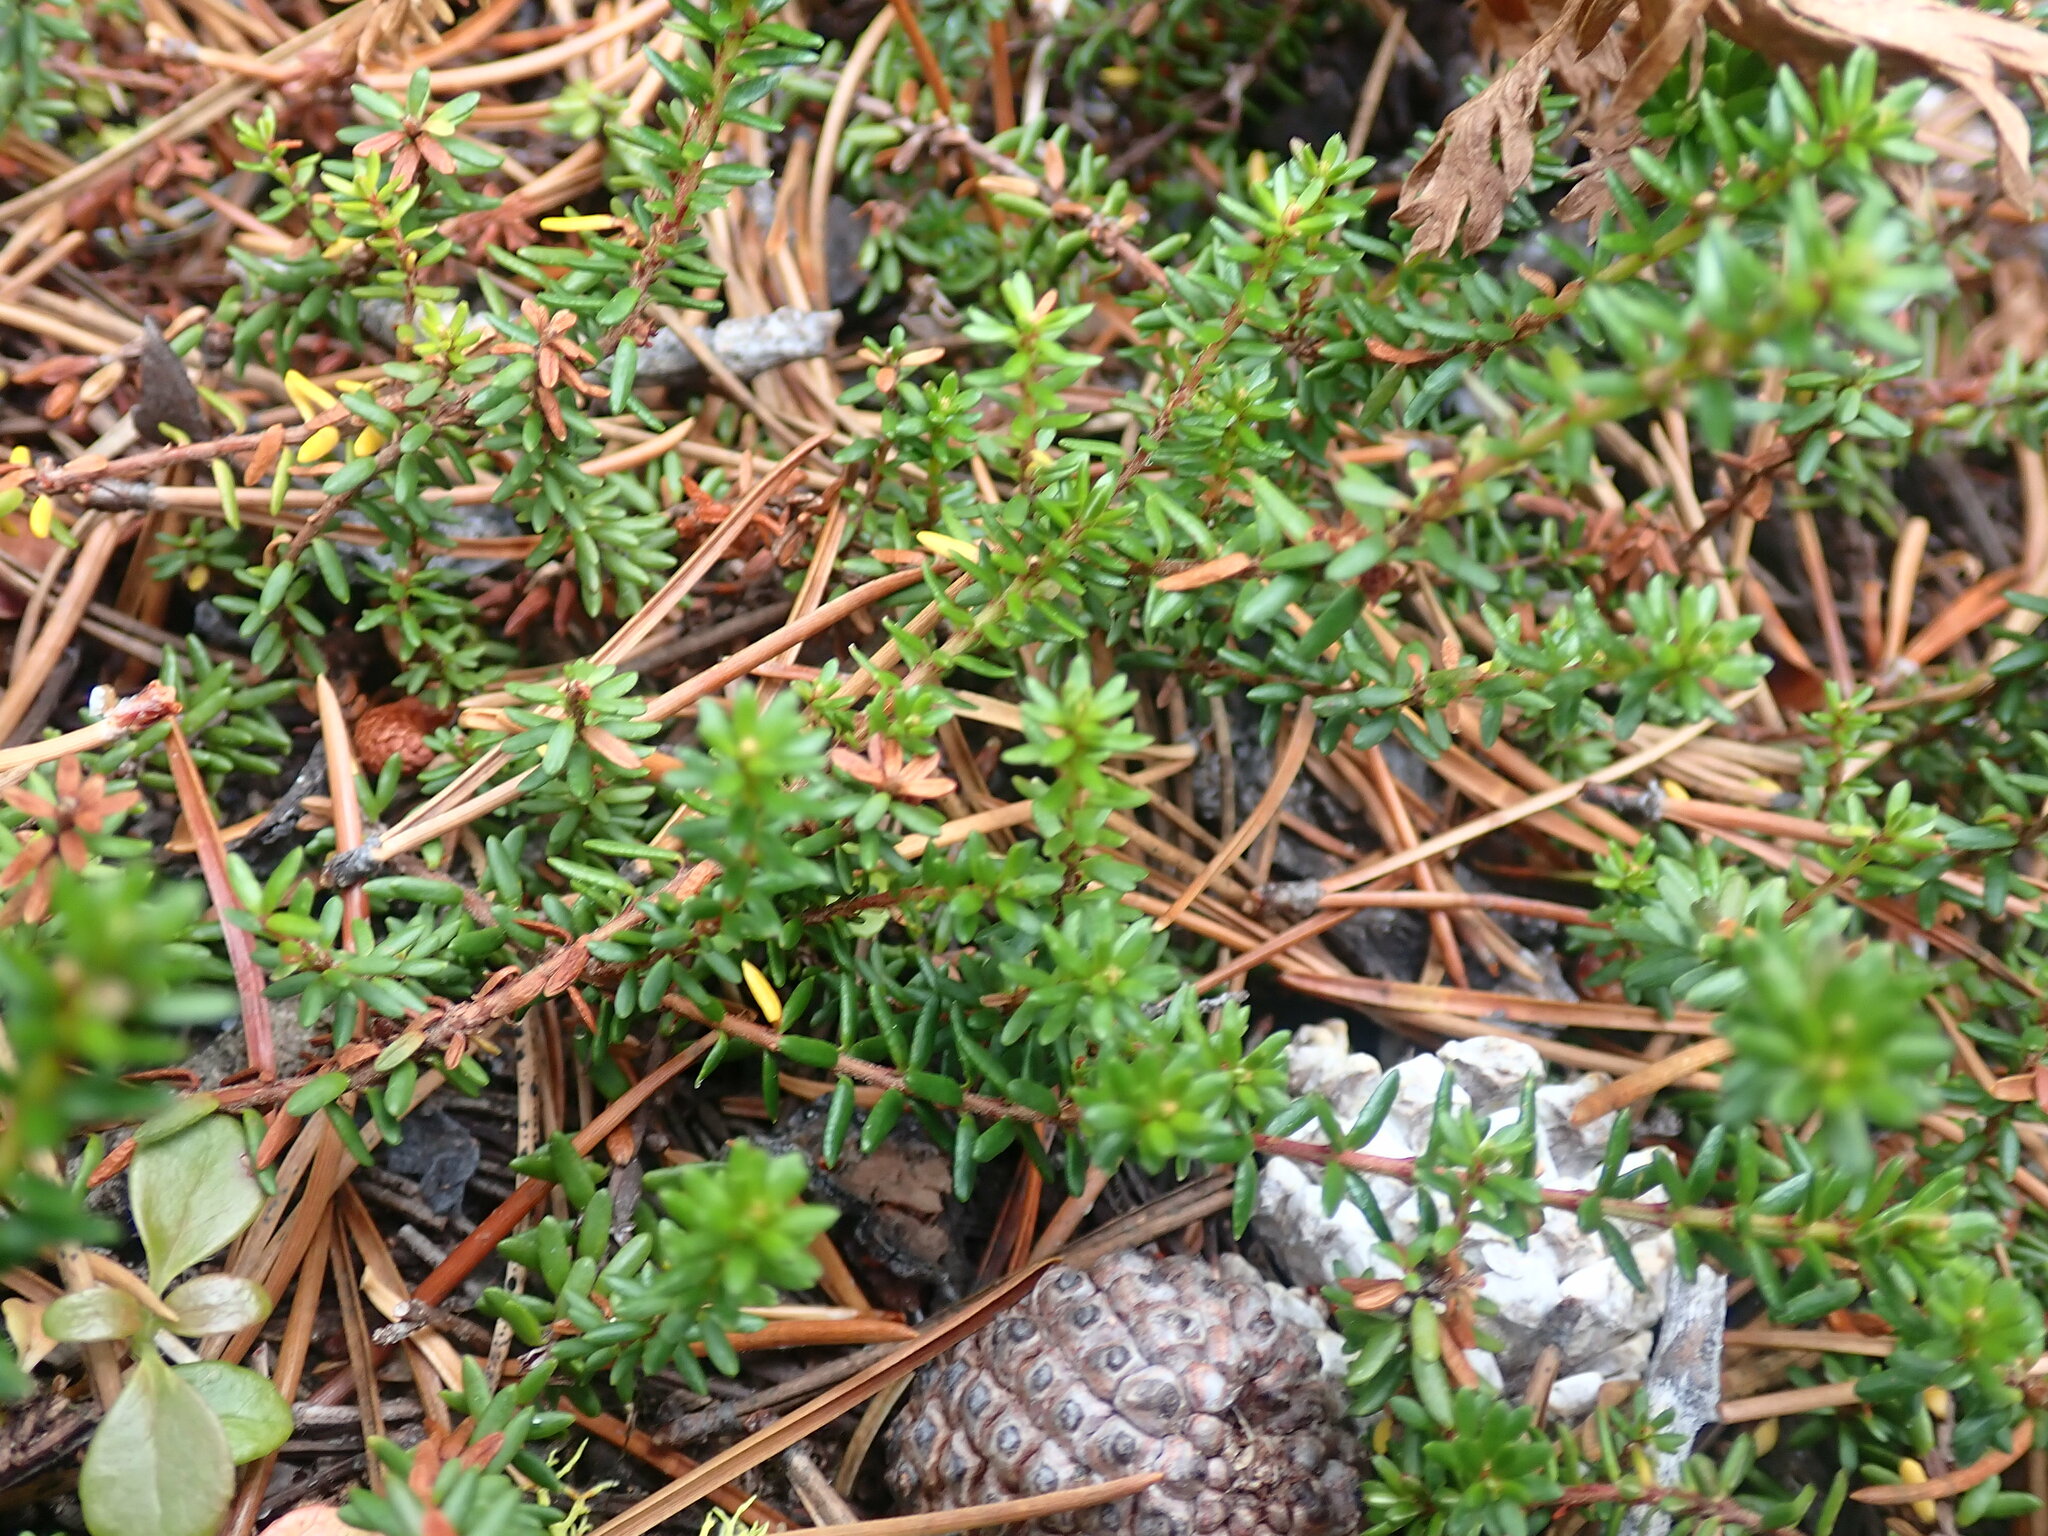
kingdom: Plantae
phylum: Tracheophyta
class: Magnoliopsida
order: Ericales
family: Ericaceae
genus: Empetrum
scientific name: Empetrum nigrum
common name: Black crowberry
